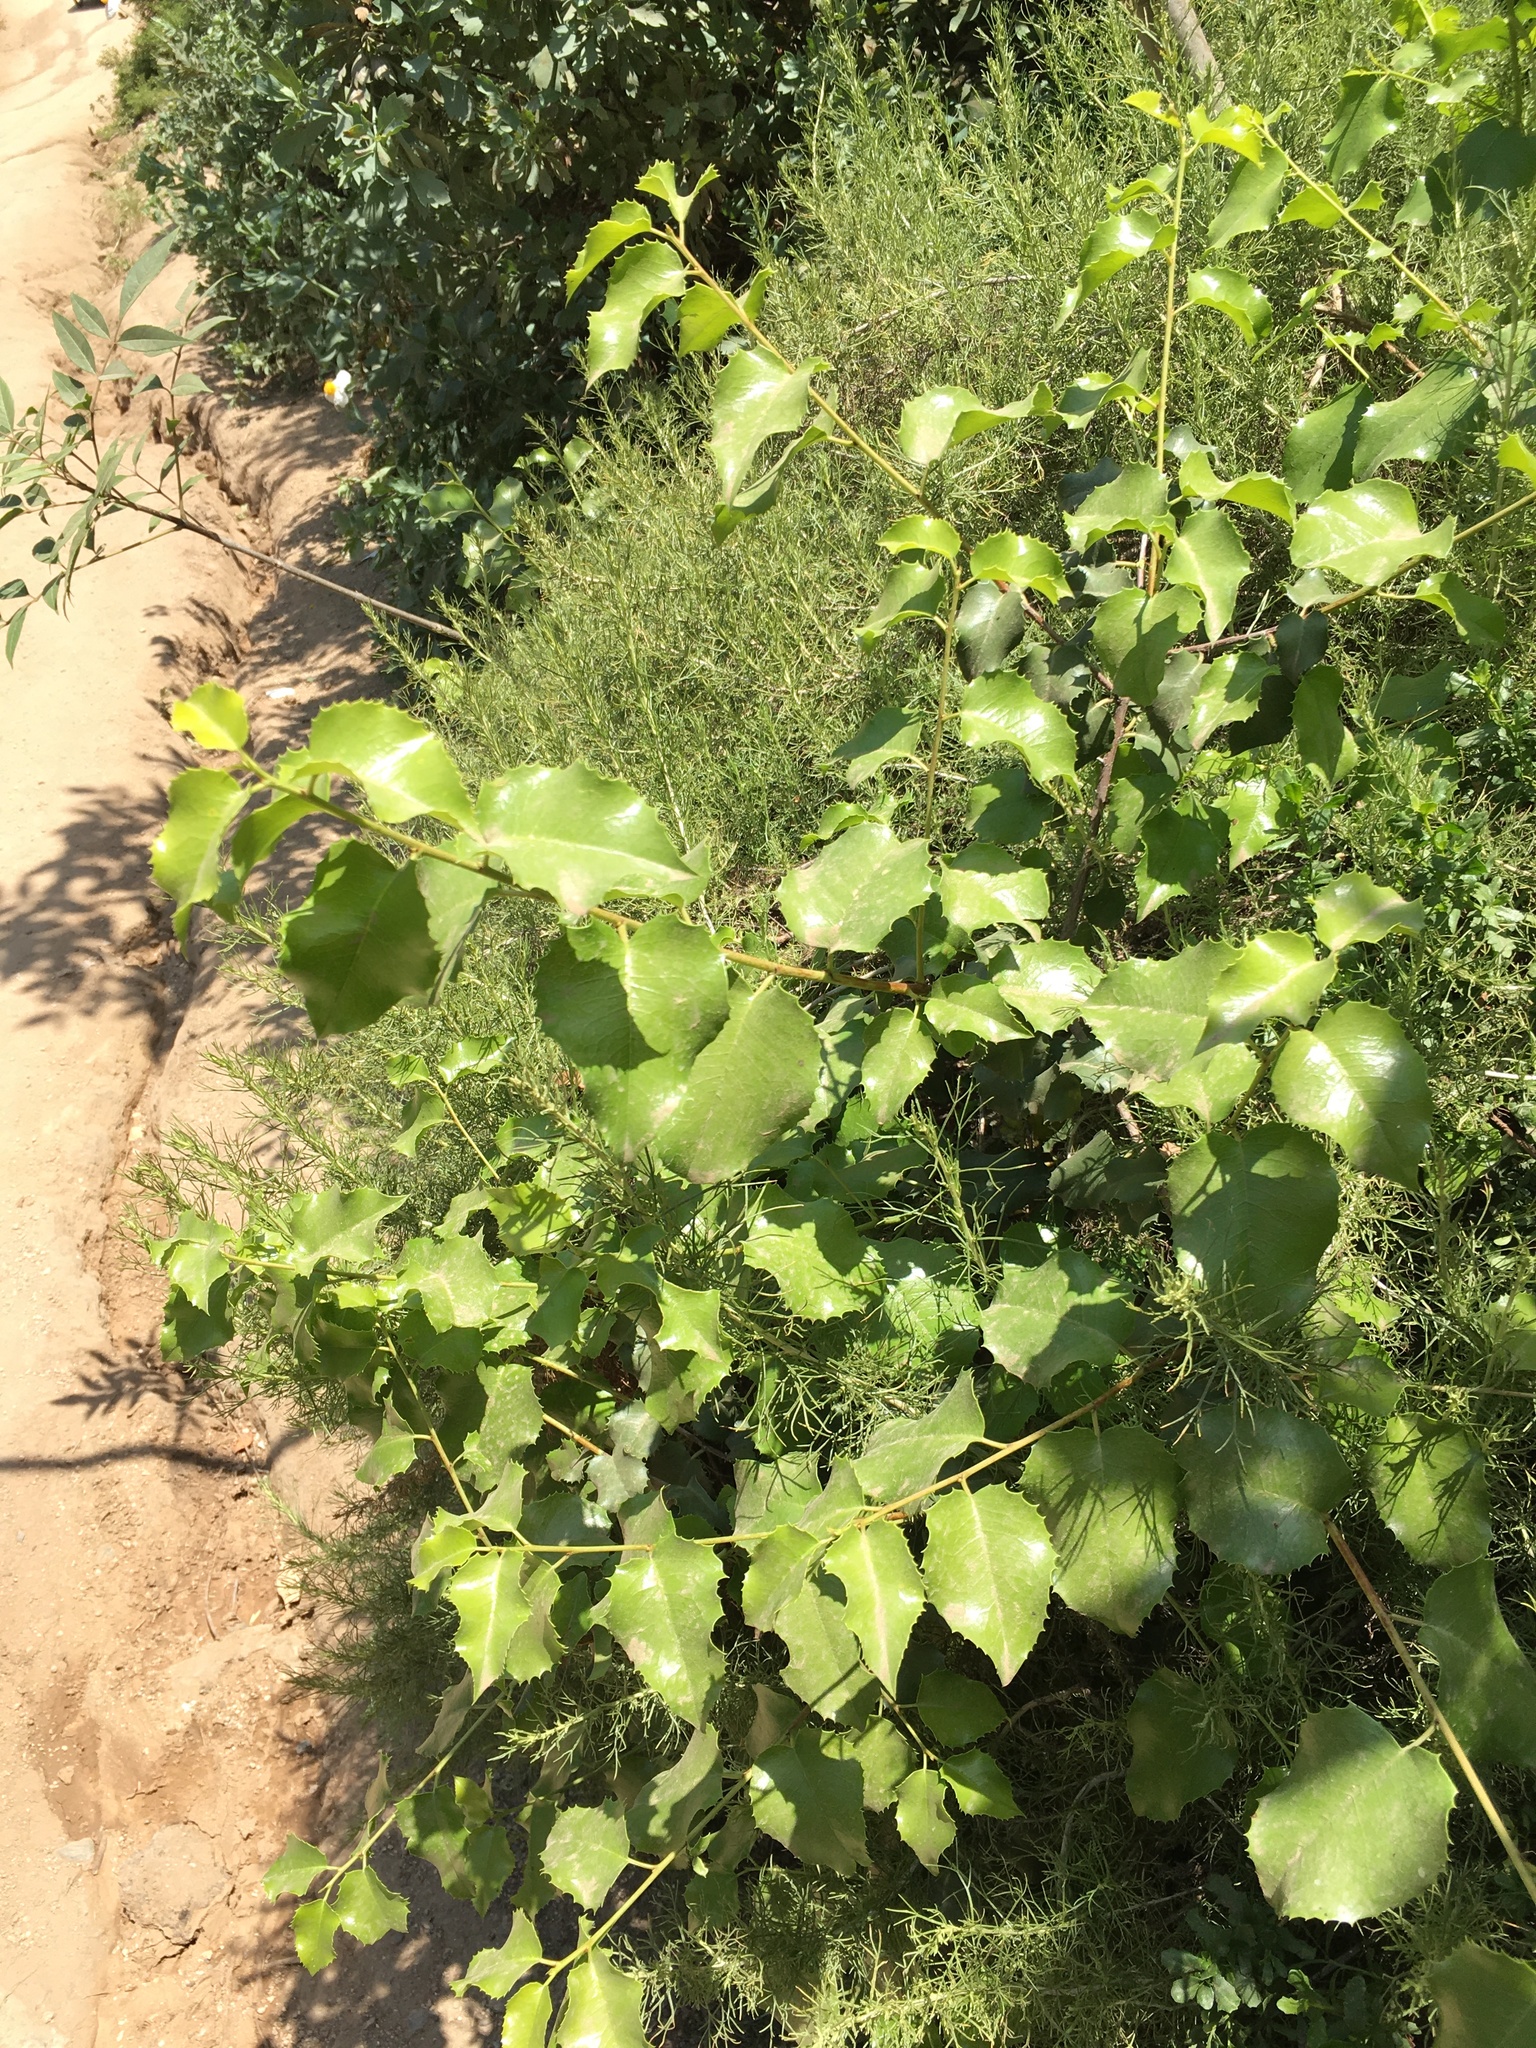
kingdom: Plantae
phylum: Tracheophyta
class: Magnoliopsida
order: Rosales
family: Rosaceae
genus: Prunus
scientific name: Prunus ilicifolia
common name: Hollyleaf cherry
